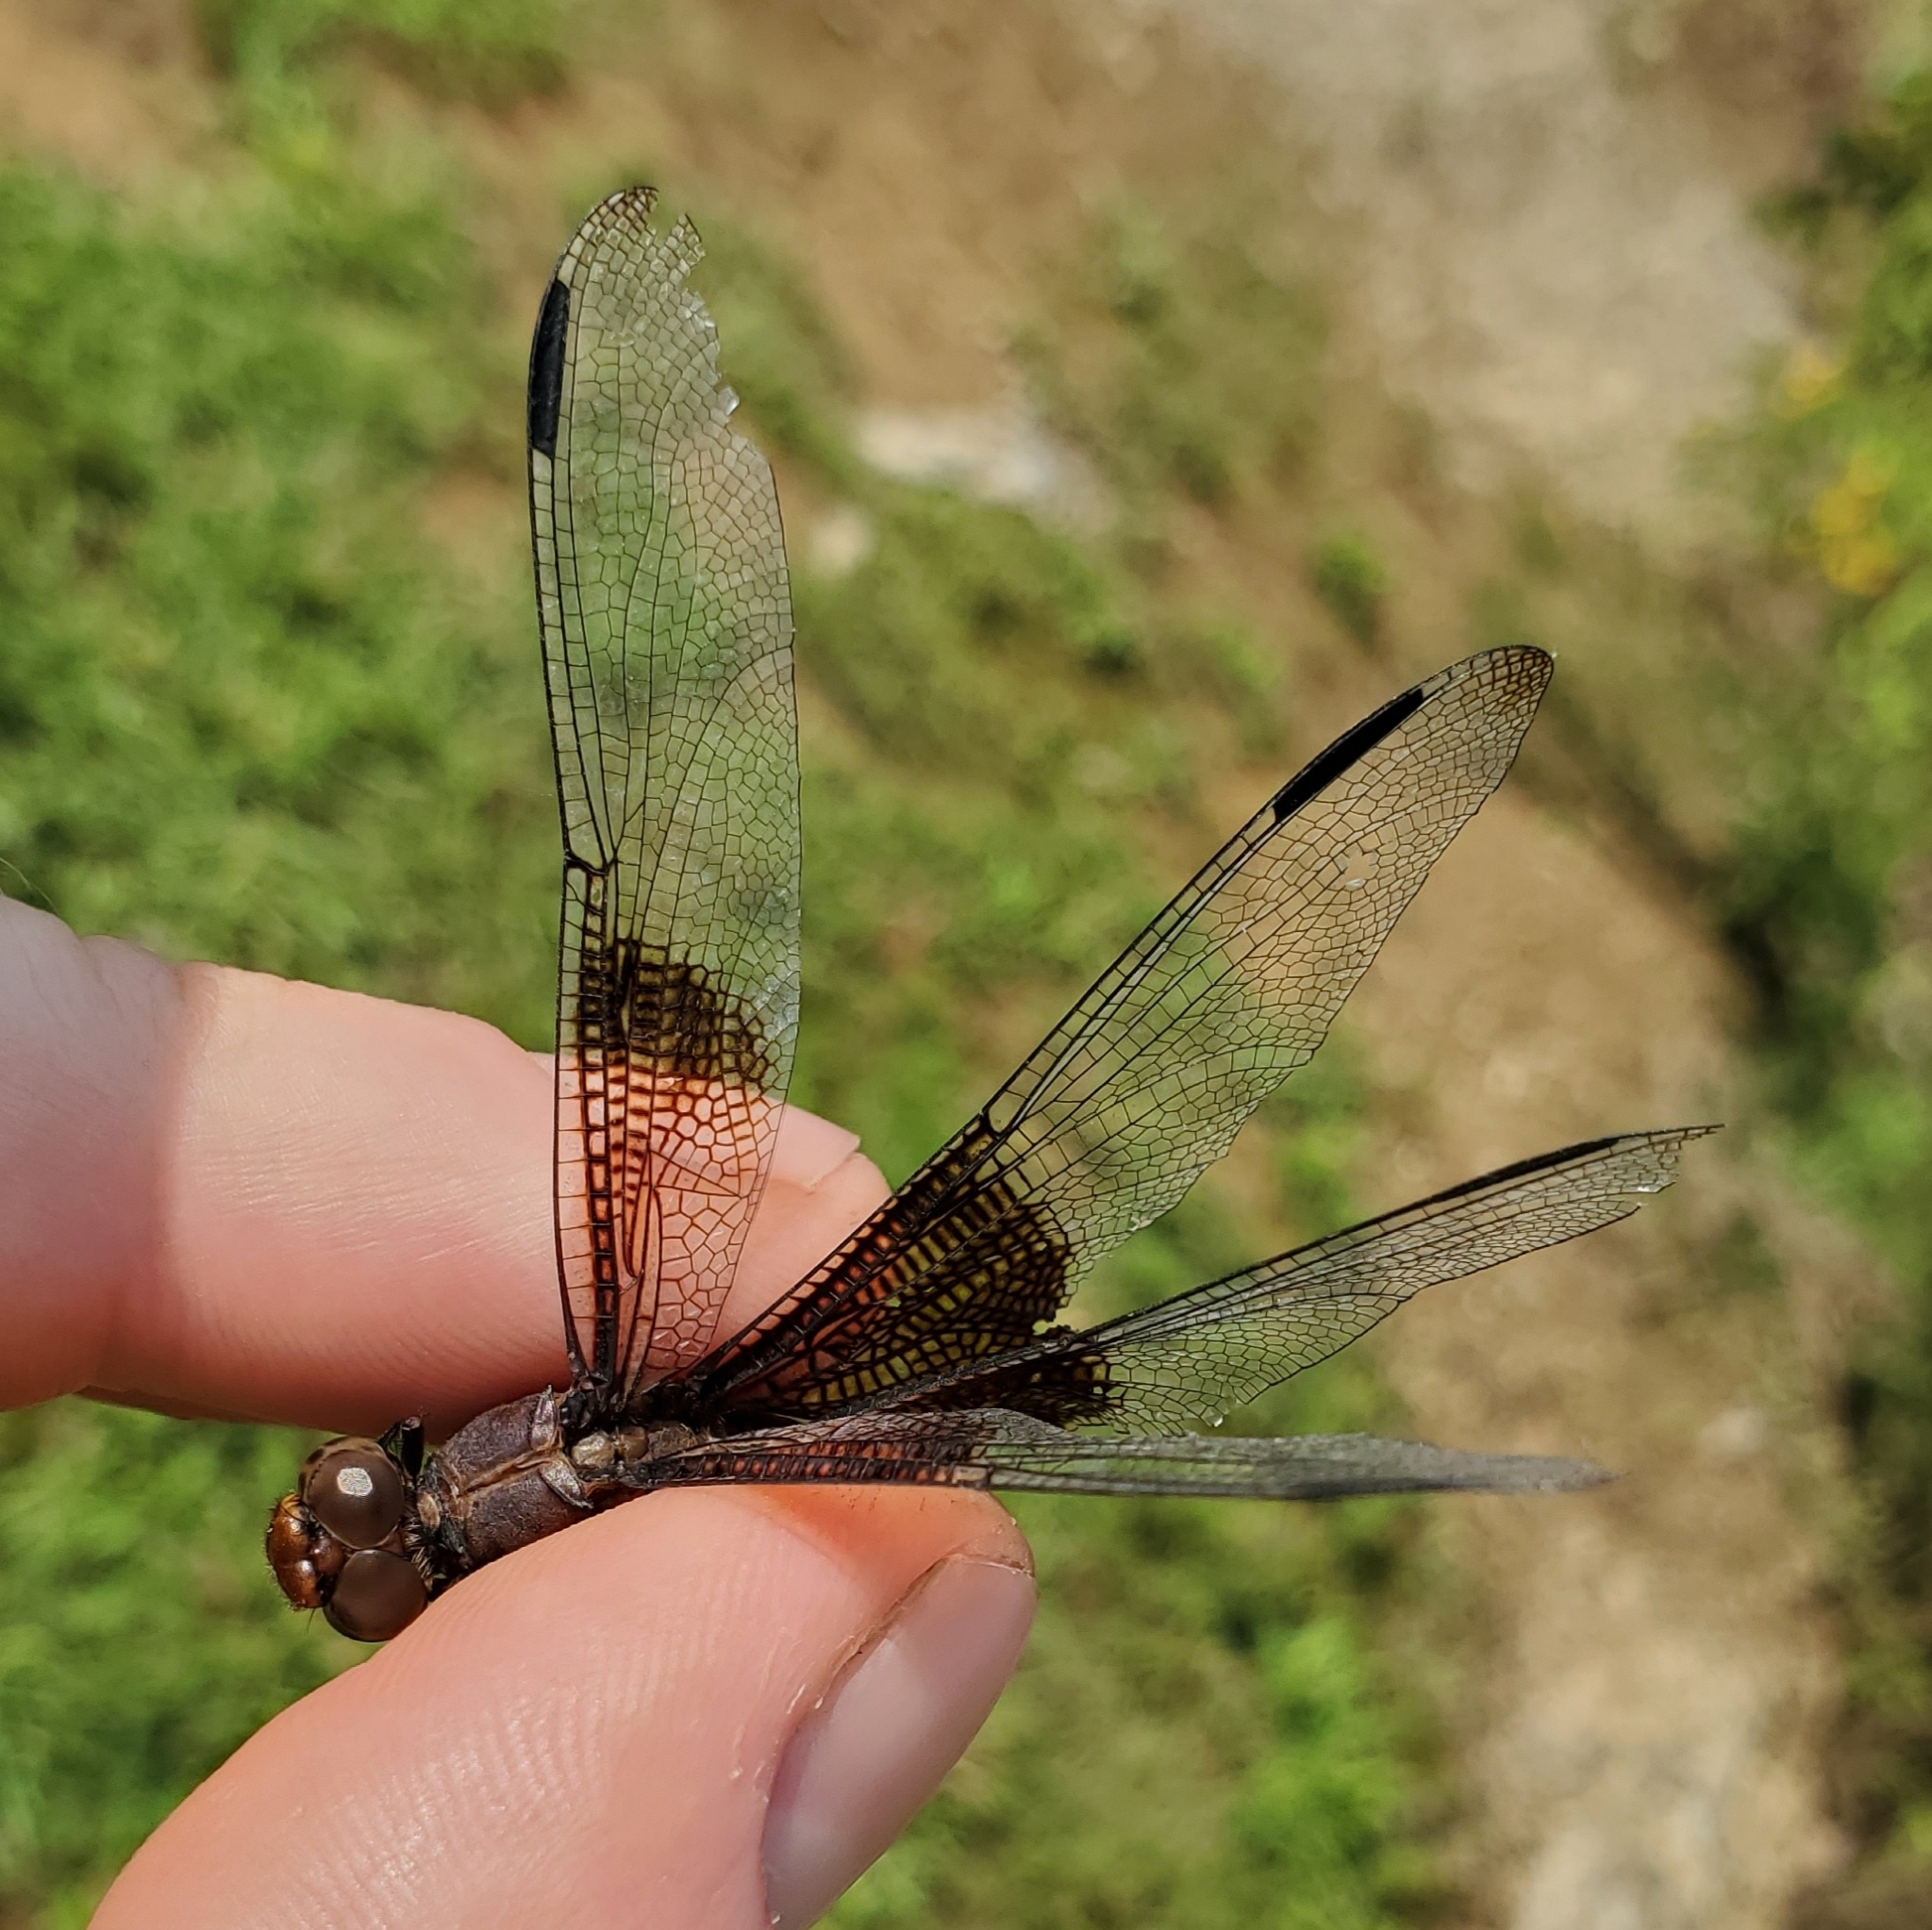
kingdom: Animalia
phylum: Arthropoda
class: Insecta
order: Odonata
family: Libellulidae
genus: Libellula
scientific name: Libellula luctuosa
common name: Widow skimmer
